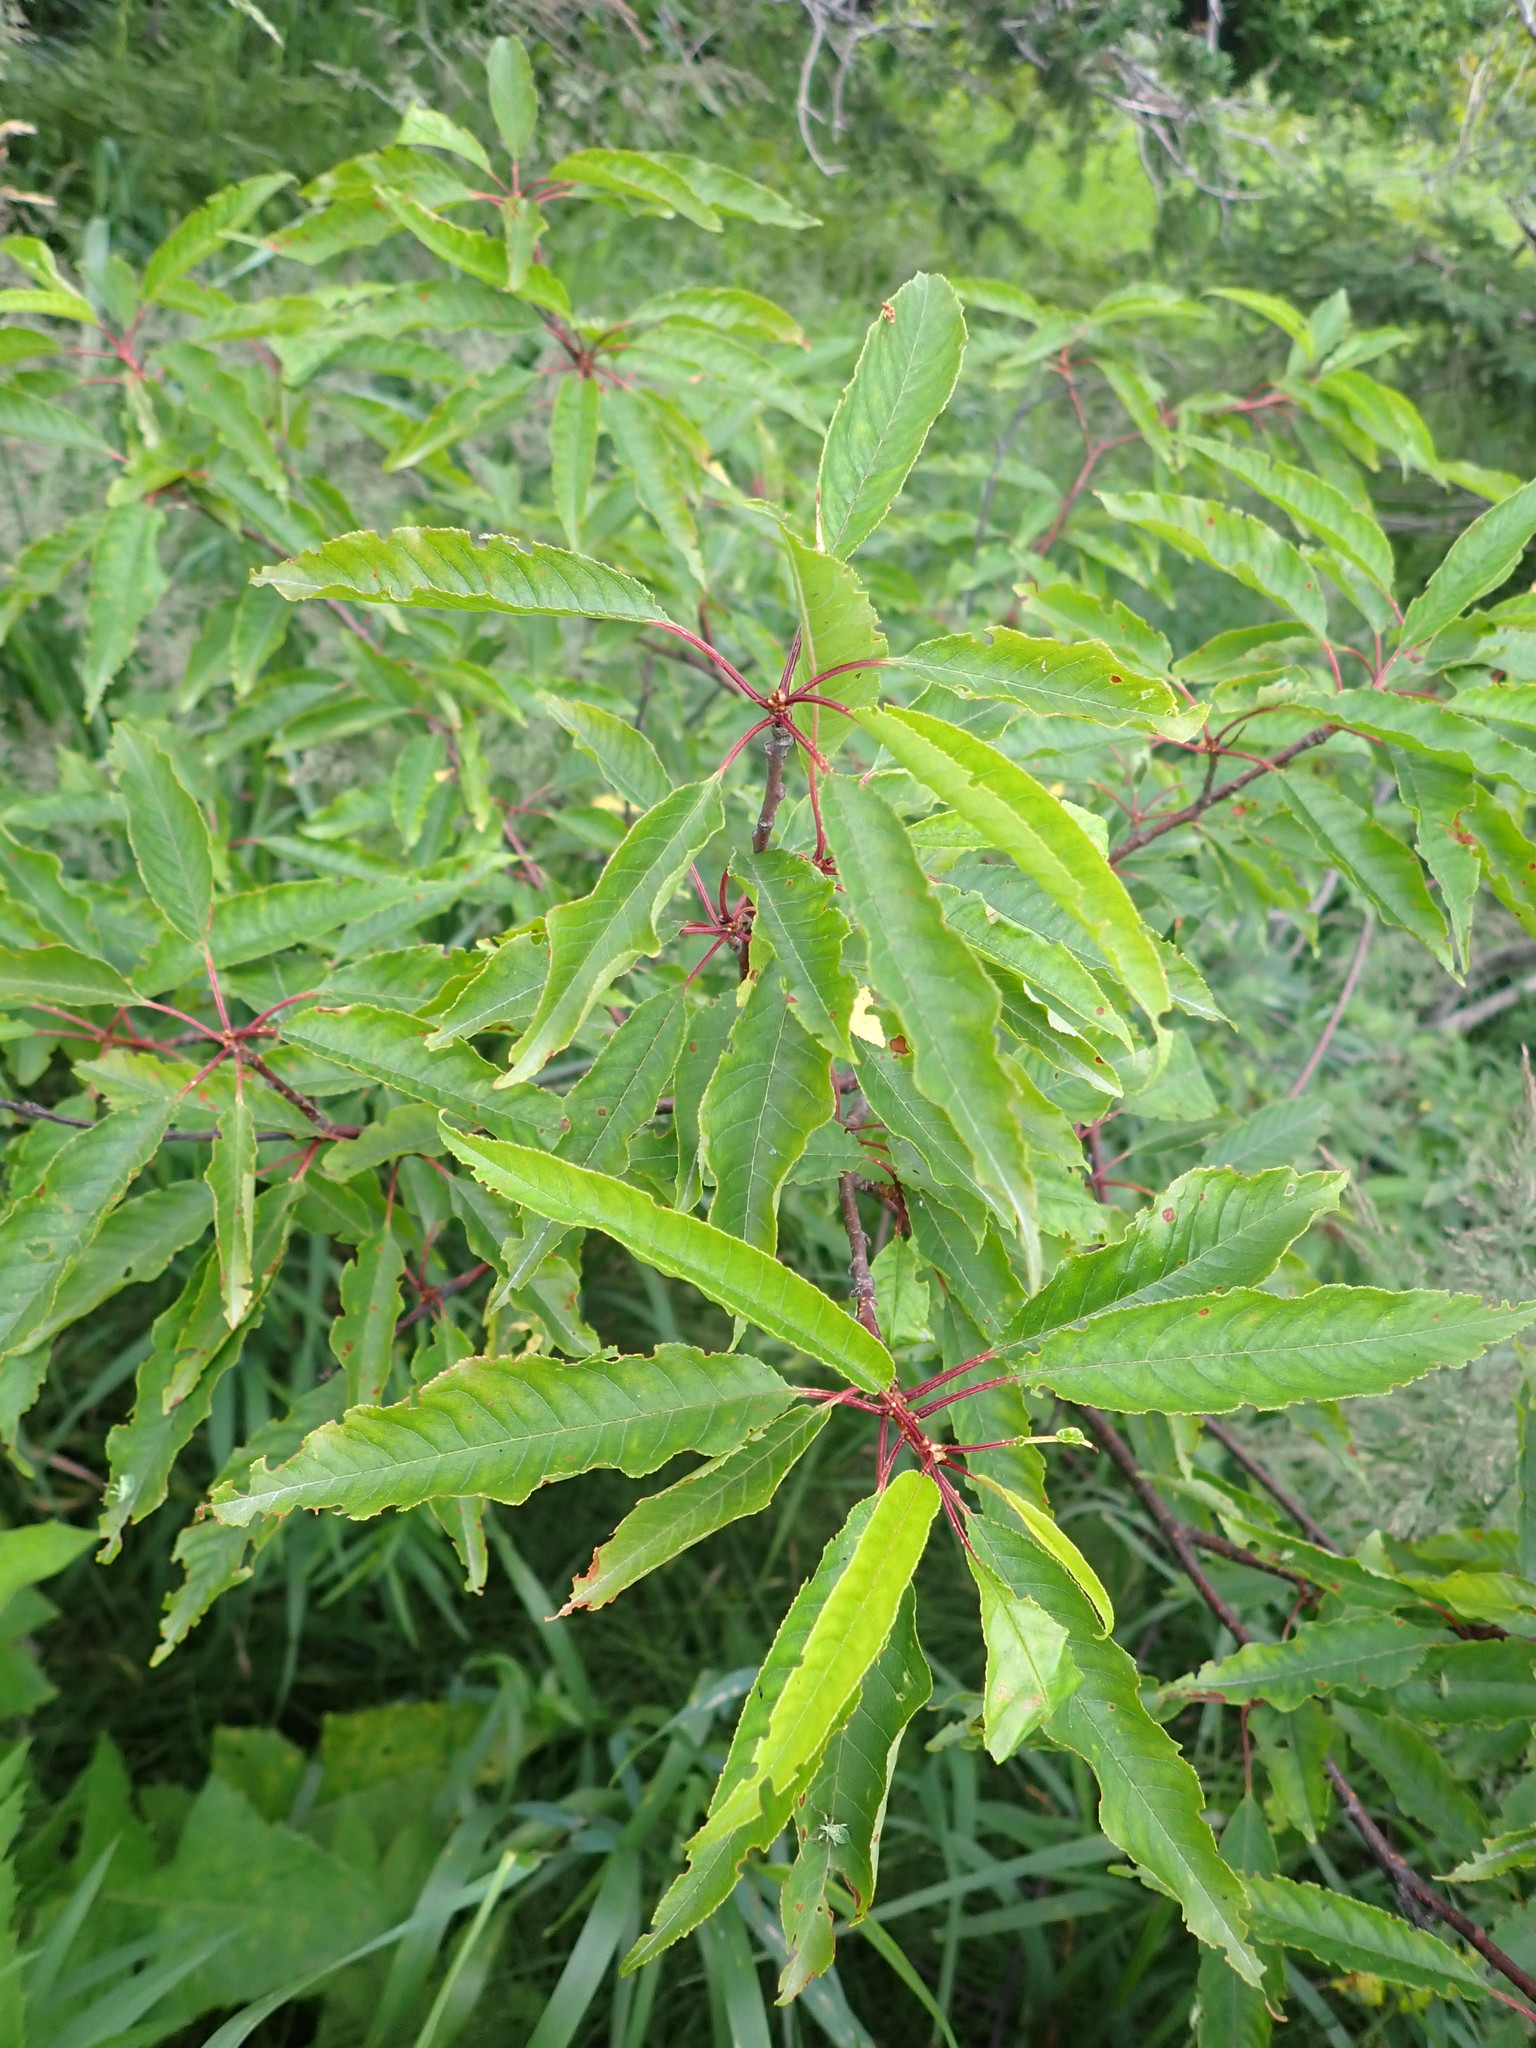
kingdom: Plantae
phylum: Tracheophyta
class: Magnoliopsida
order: Rosales
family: Rosaceae
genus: Prunus
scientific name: Prunus pensylvanica
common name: Pin cherry
